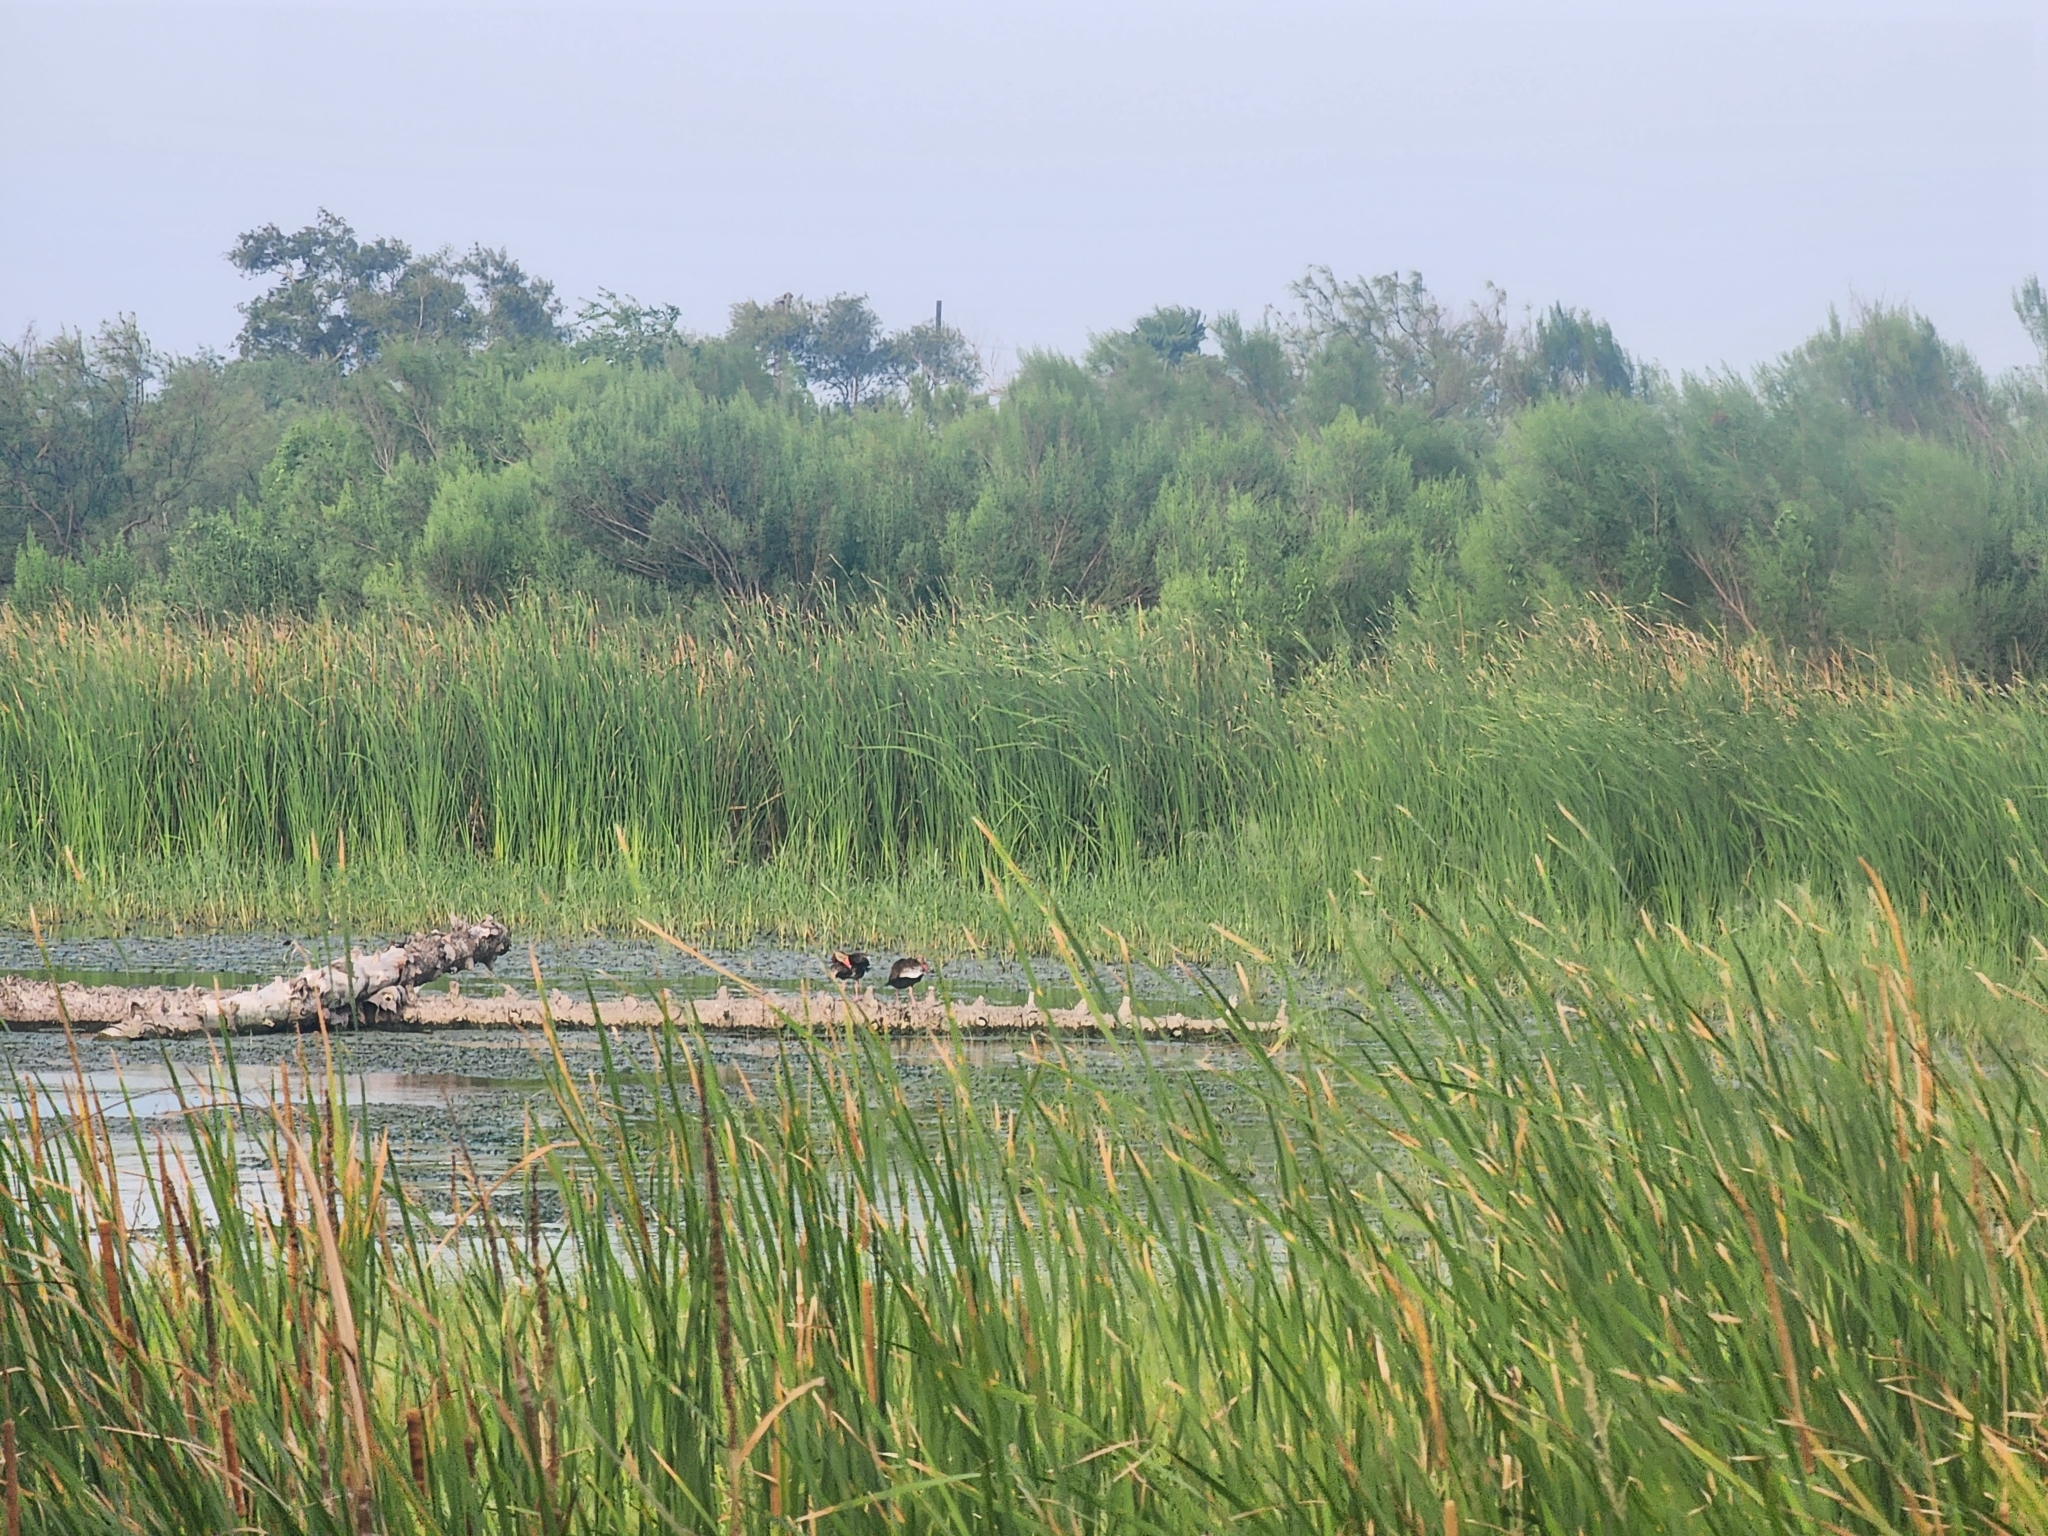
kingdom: Animalia
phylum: Chordata
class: Aves
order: Anseriformes
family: Anatidae
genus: Dendrocygna
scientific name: Dendrocygna autumnalis
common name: Black-bellied whistling duck
